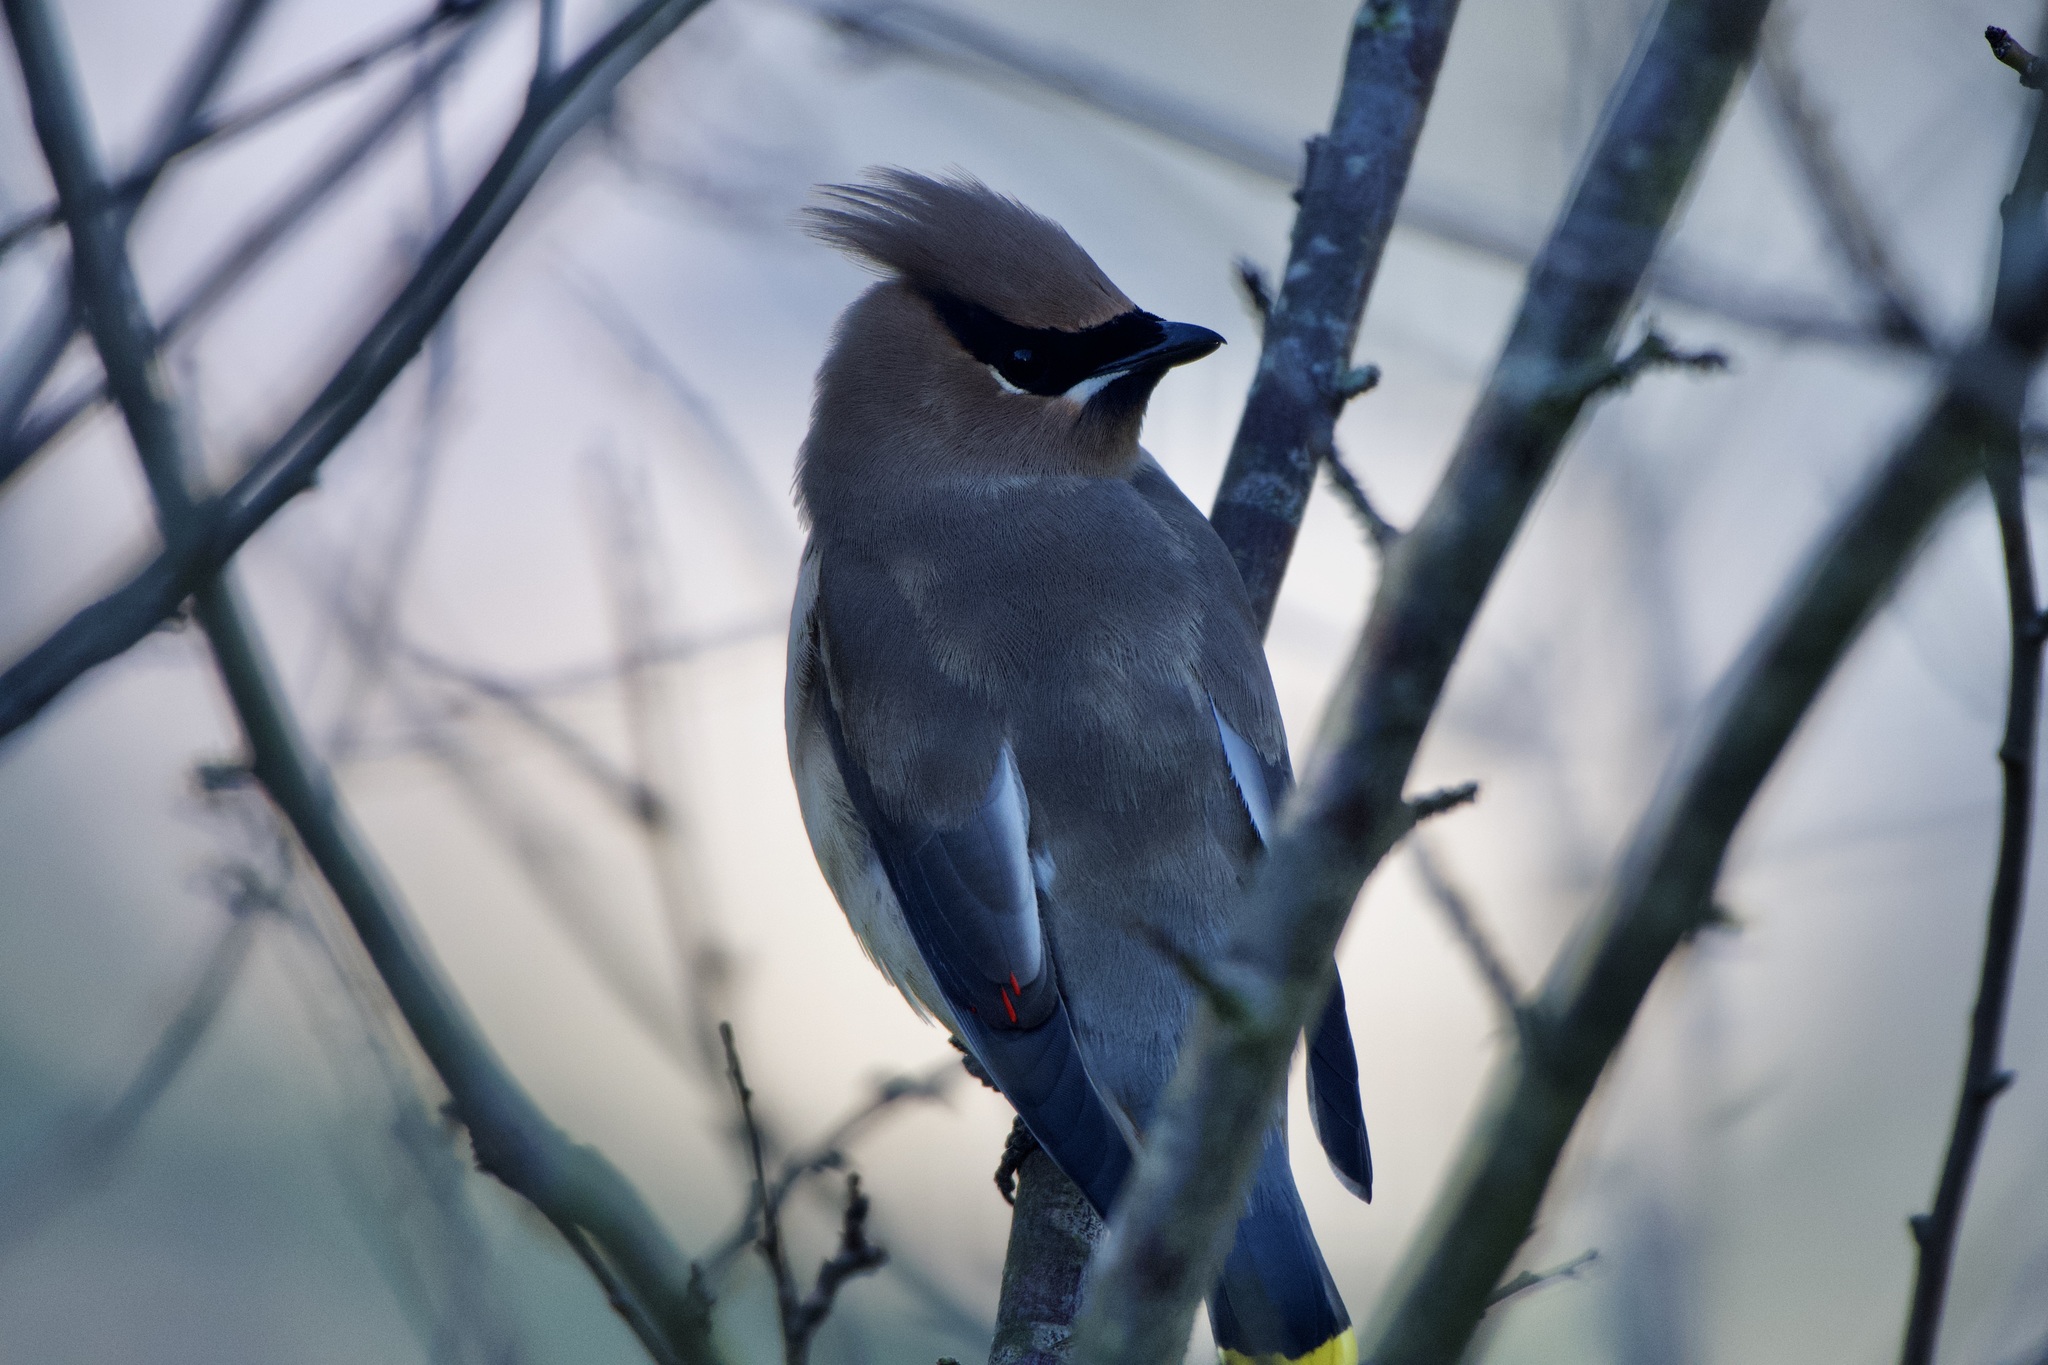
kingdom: Animalia
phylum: Chordata
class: Aves
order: Passeriformes
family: Bombycillidae
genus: Bombycilla
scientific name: Bombycilla cedrorum
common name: Cedar waxwing
